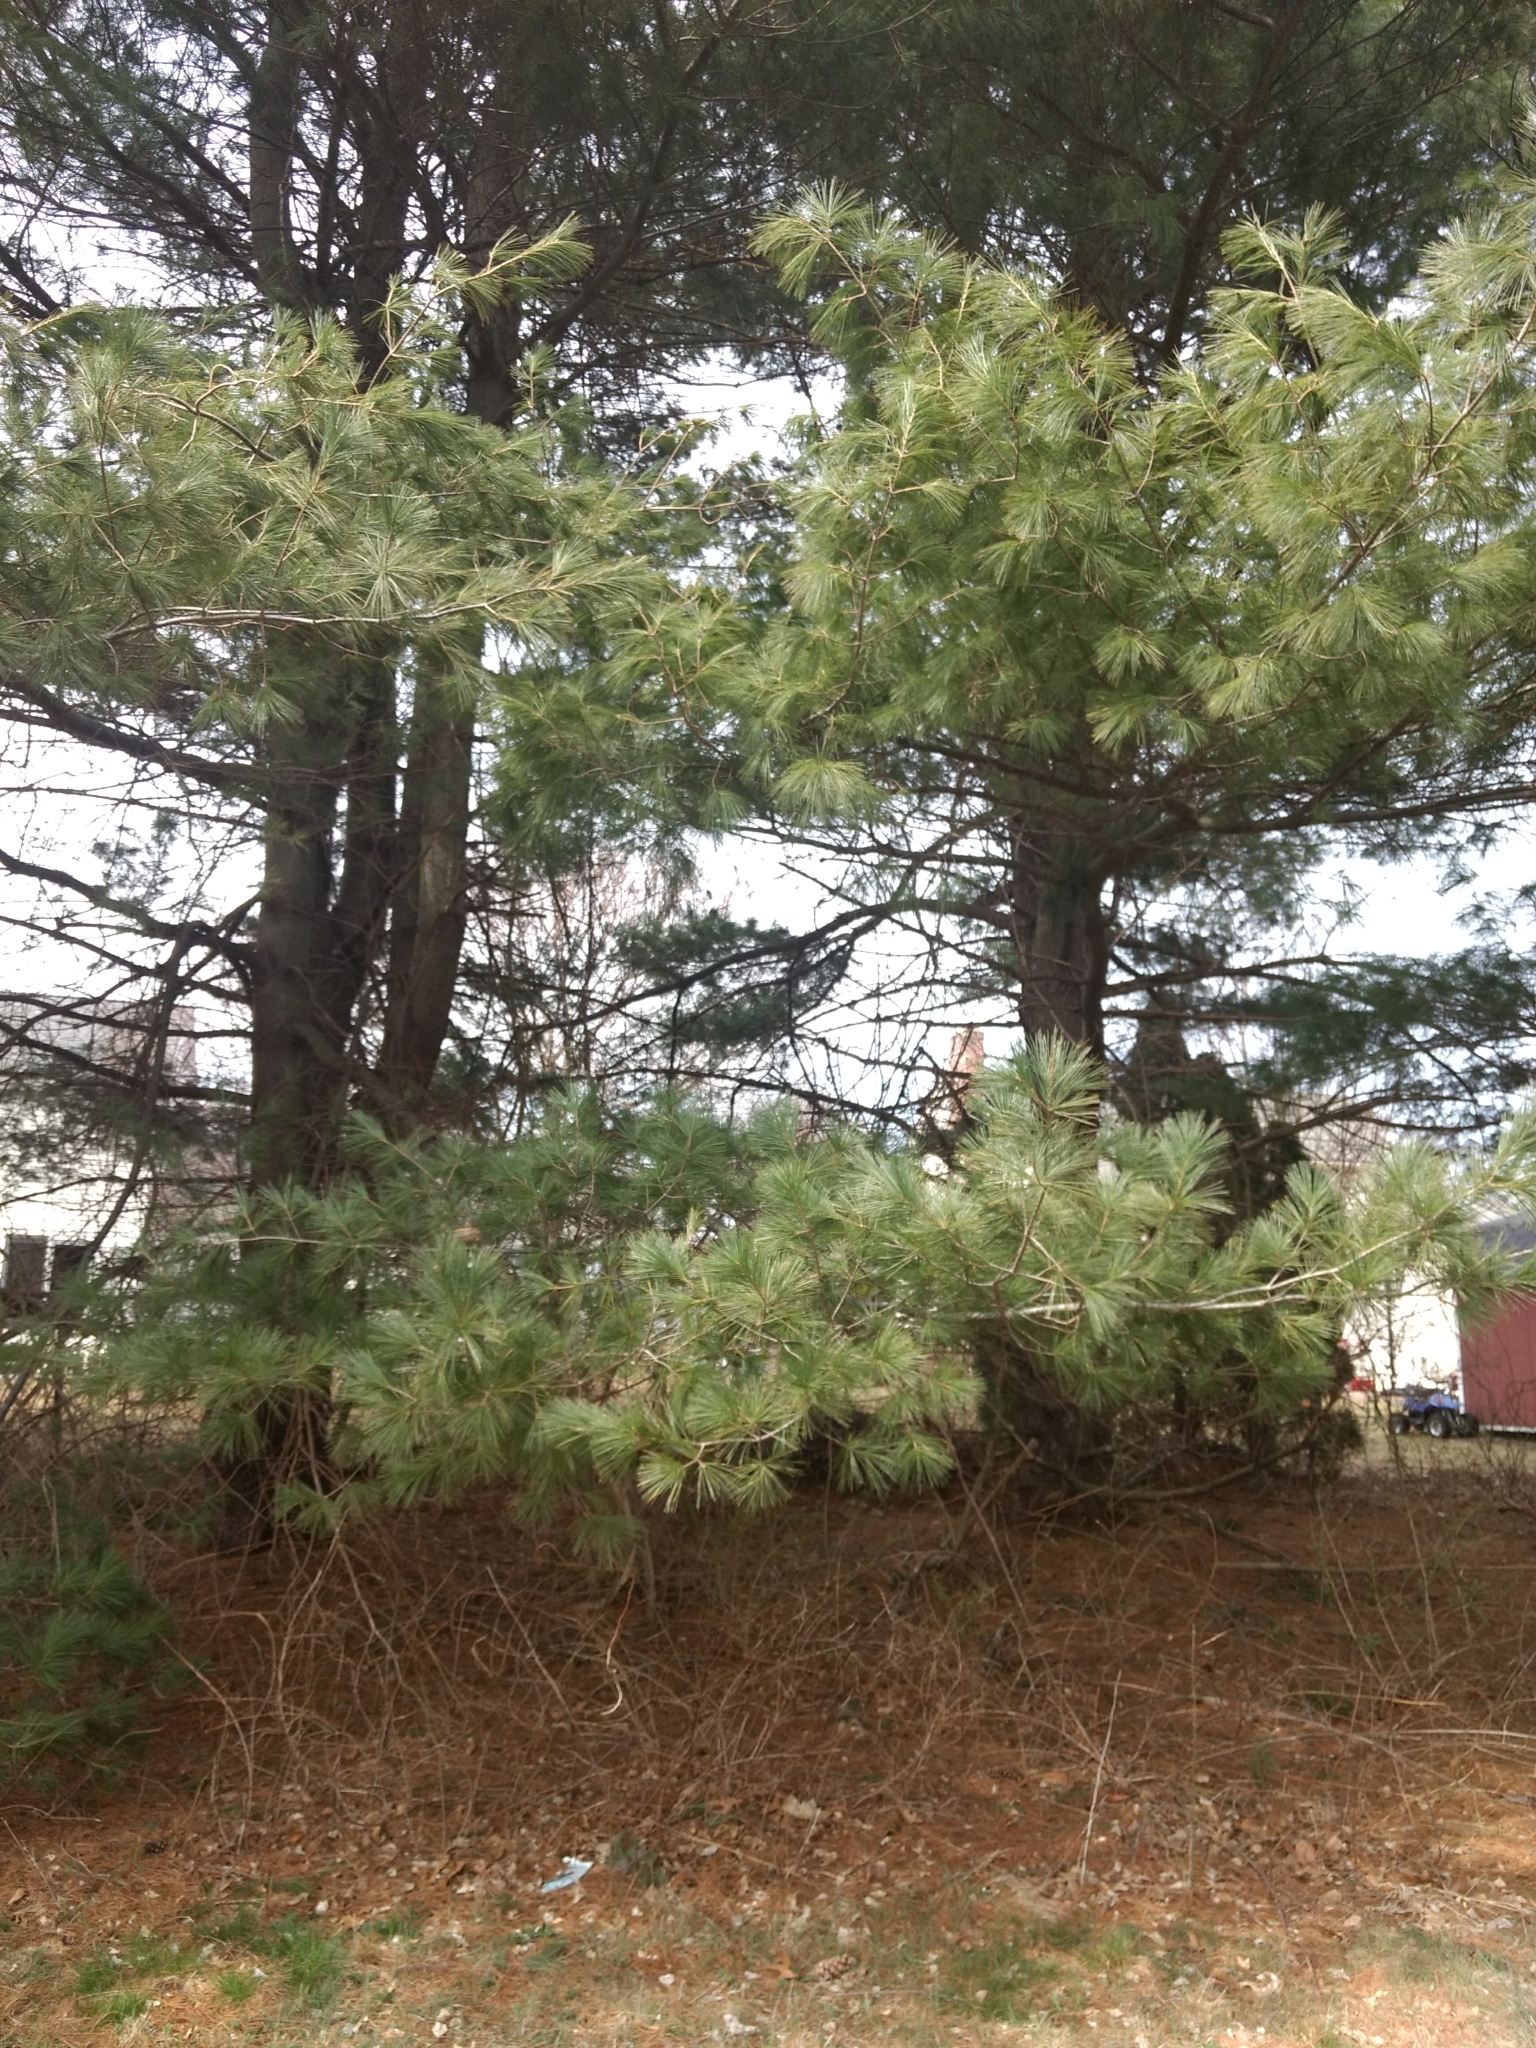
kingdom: Plantae
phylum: Tracheophyta
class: Pinopsida
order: Pinales
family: Pinaceae
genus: Pinus
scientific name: Pinus strobus
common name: Weymouth pine
